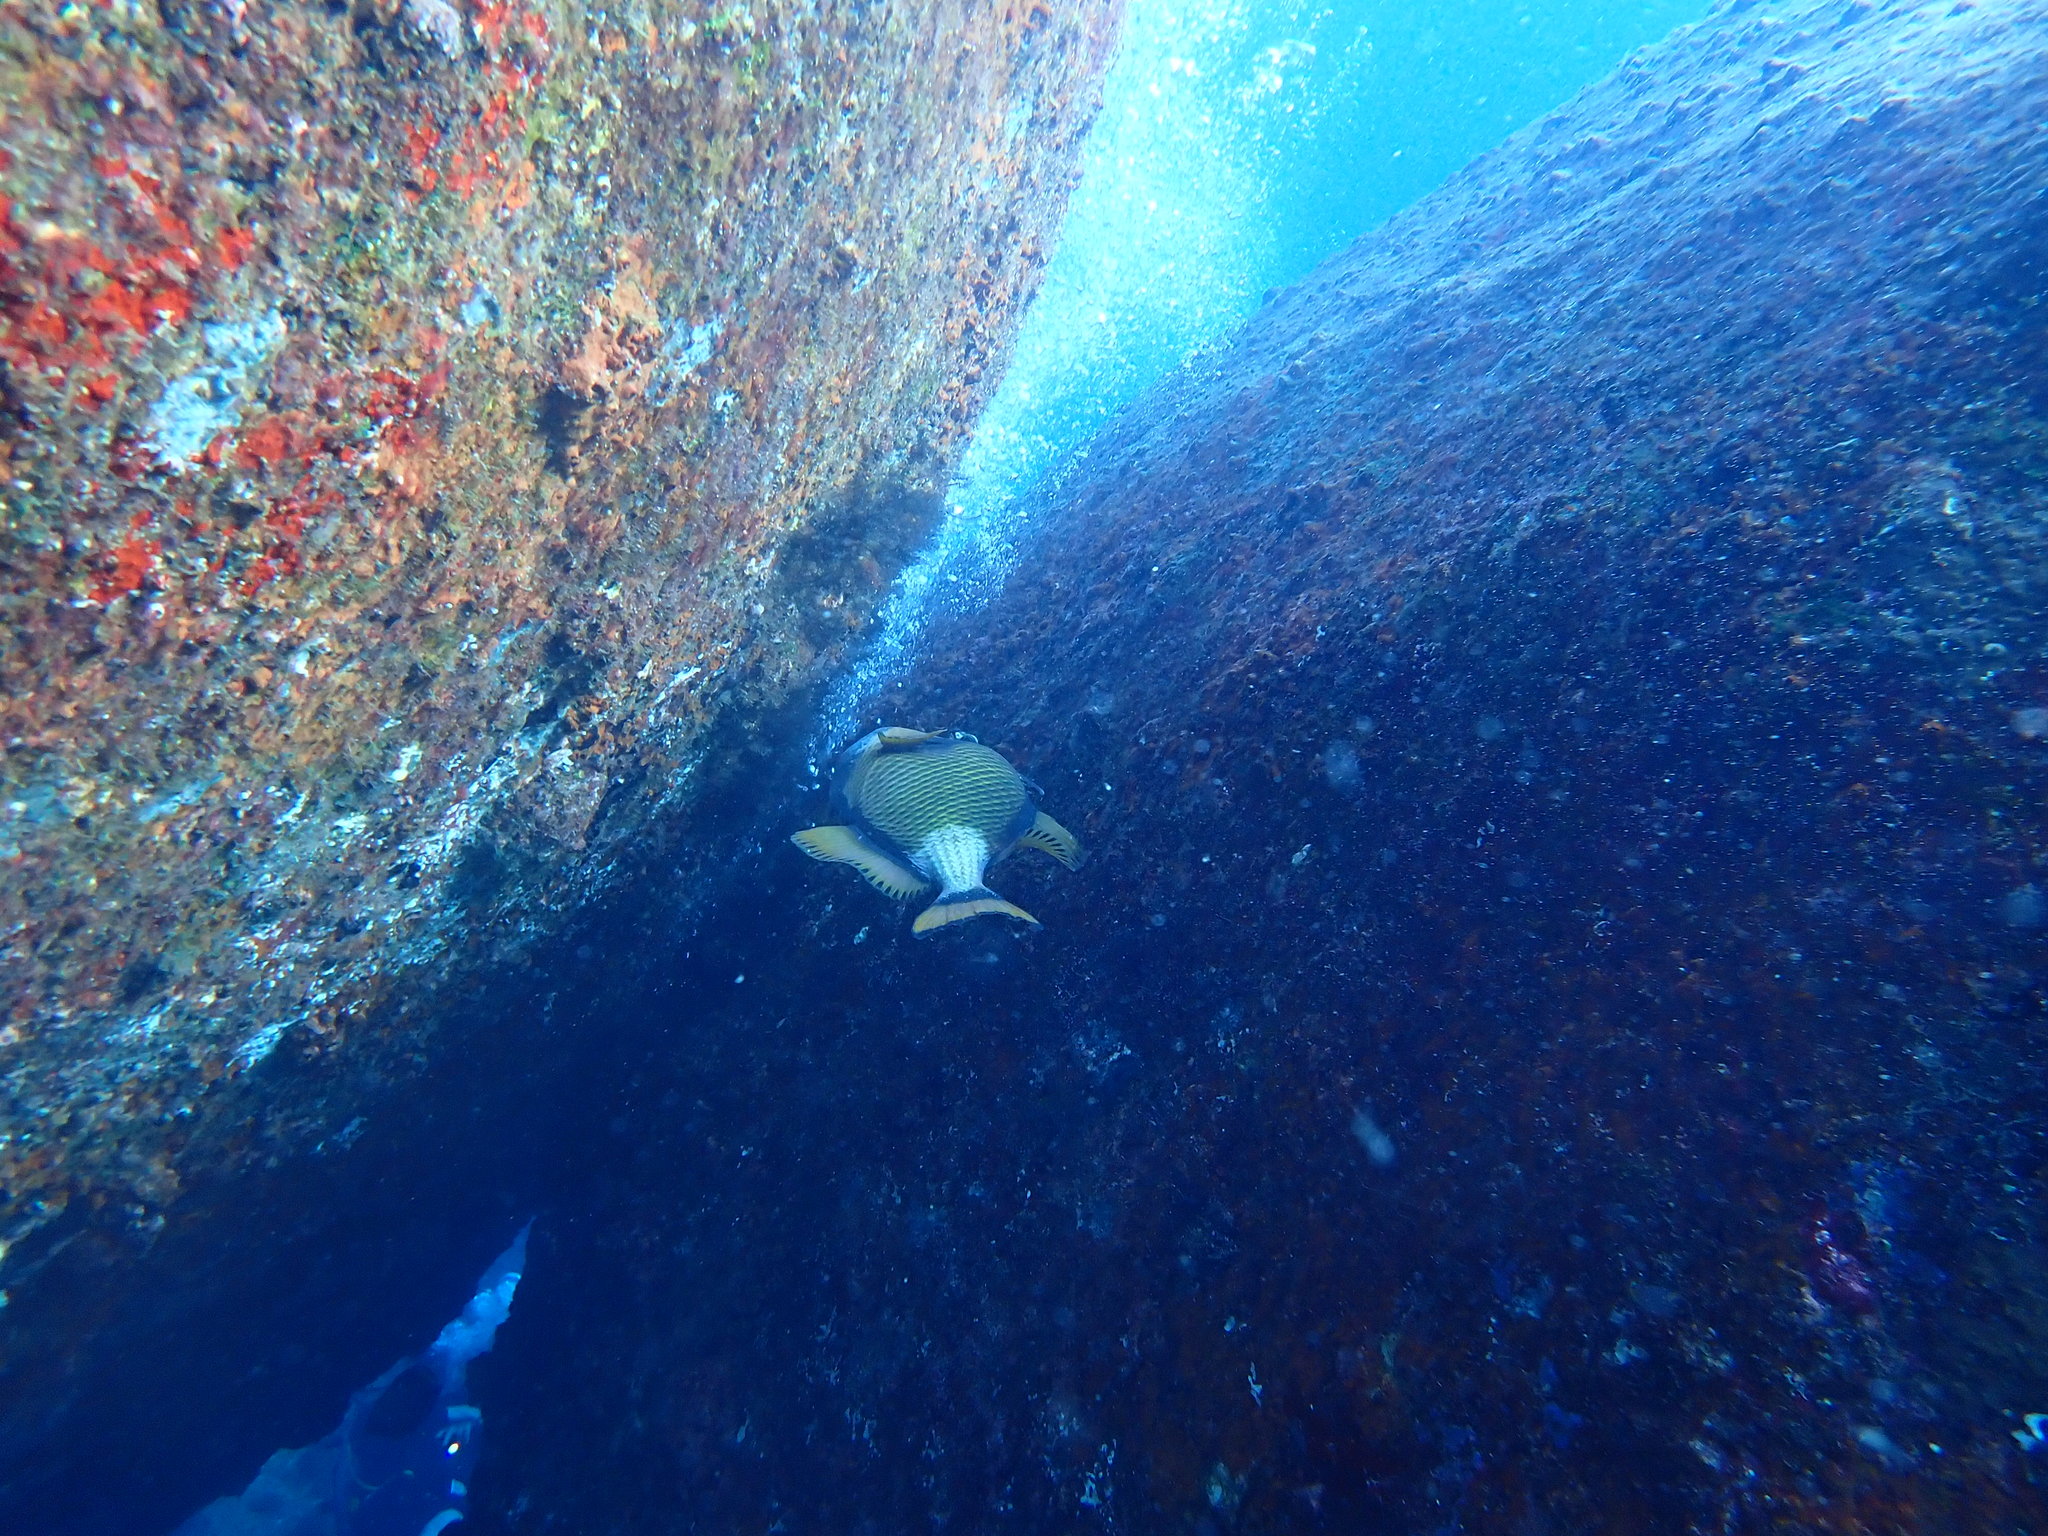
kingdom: Animalia
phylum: Chordata
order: Tetraodontiformes
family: Balistidae
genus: Balistoides
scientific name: Balistoides viridescens
